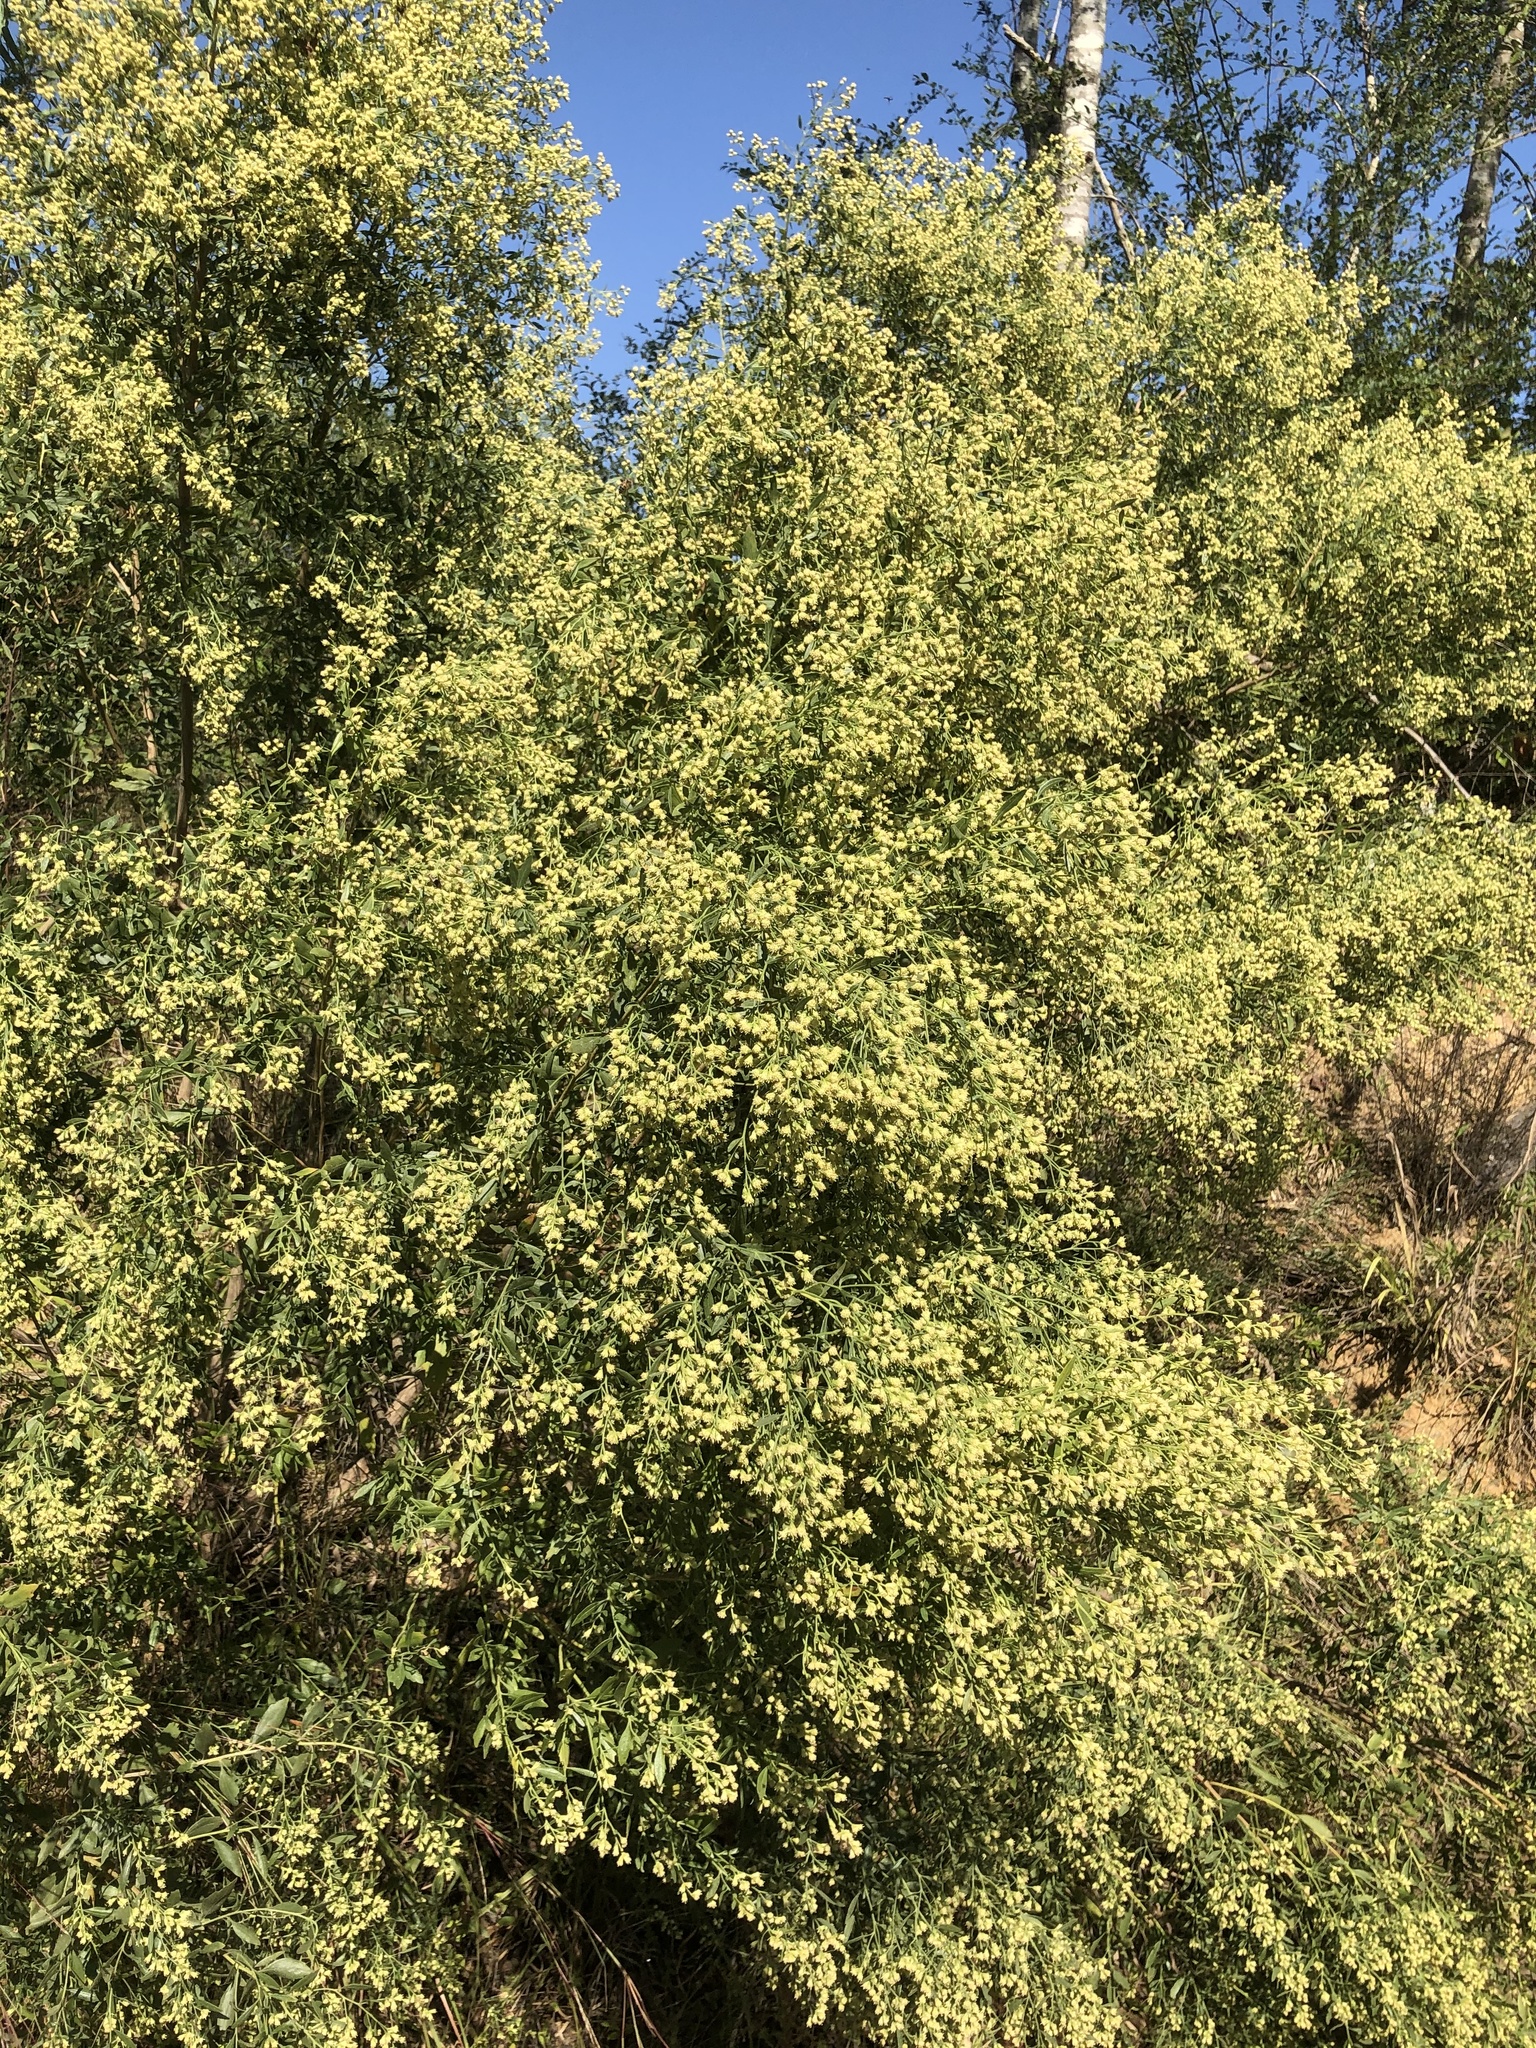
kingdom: Plantae
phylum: Tracheophyta
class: Magnoliopsida
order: Asterales
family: Asteraceae
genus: Baccharis
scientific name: Baccharis halimifolia
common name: Eastern baccharis
